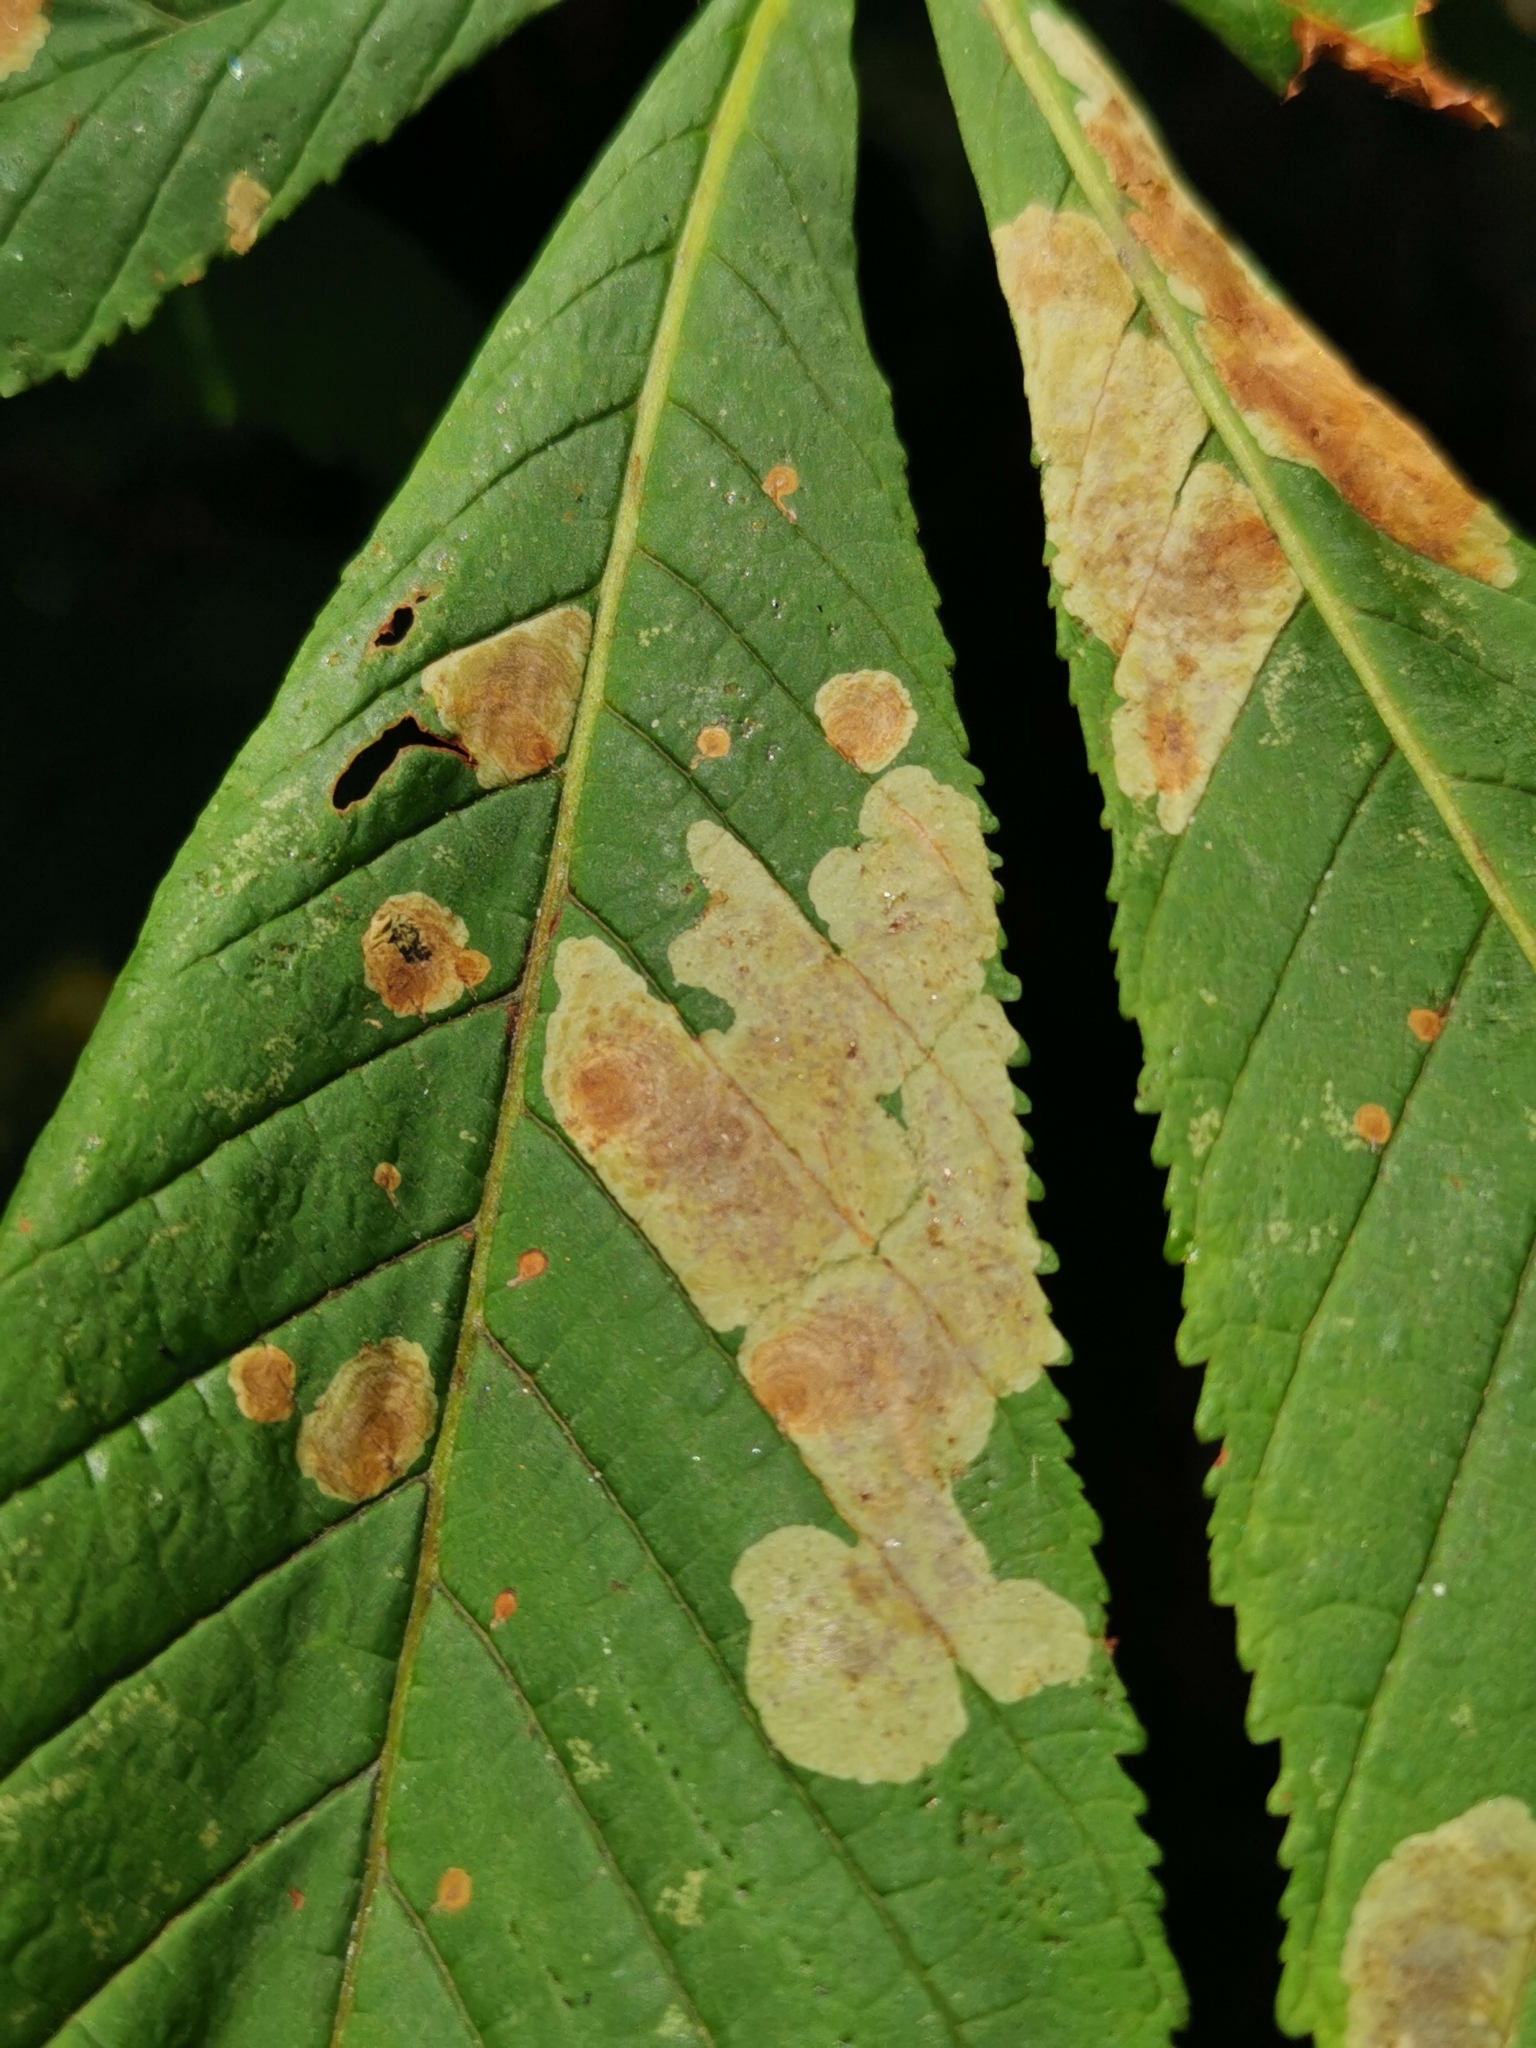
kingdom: Animalia
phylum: Arthropoda
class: Insecta
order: Lepidoptera
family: Gracillariidae
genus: Cameraria
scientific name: Cameraria ohridella
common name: Horse-chestnut leaf-miner
